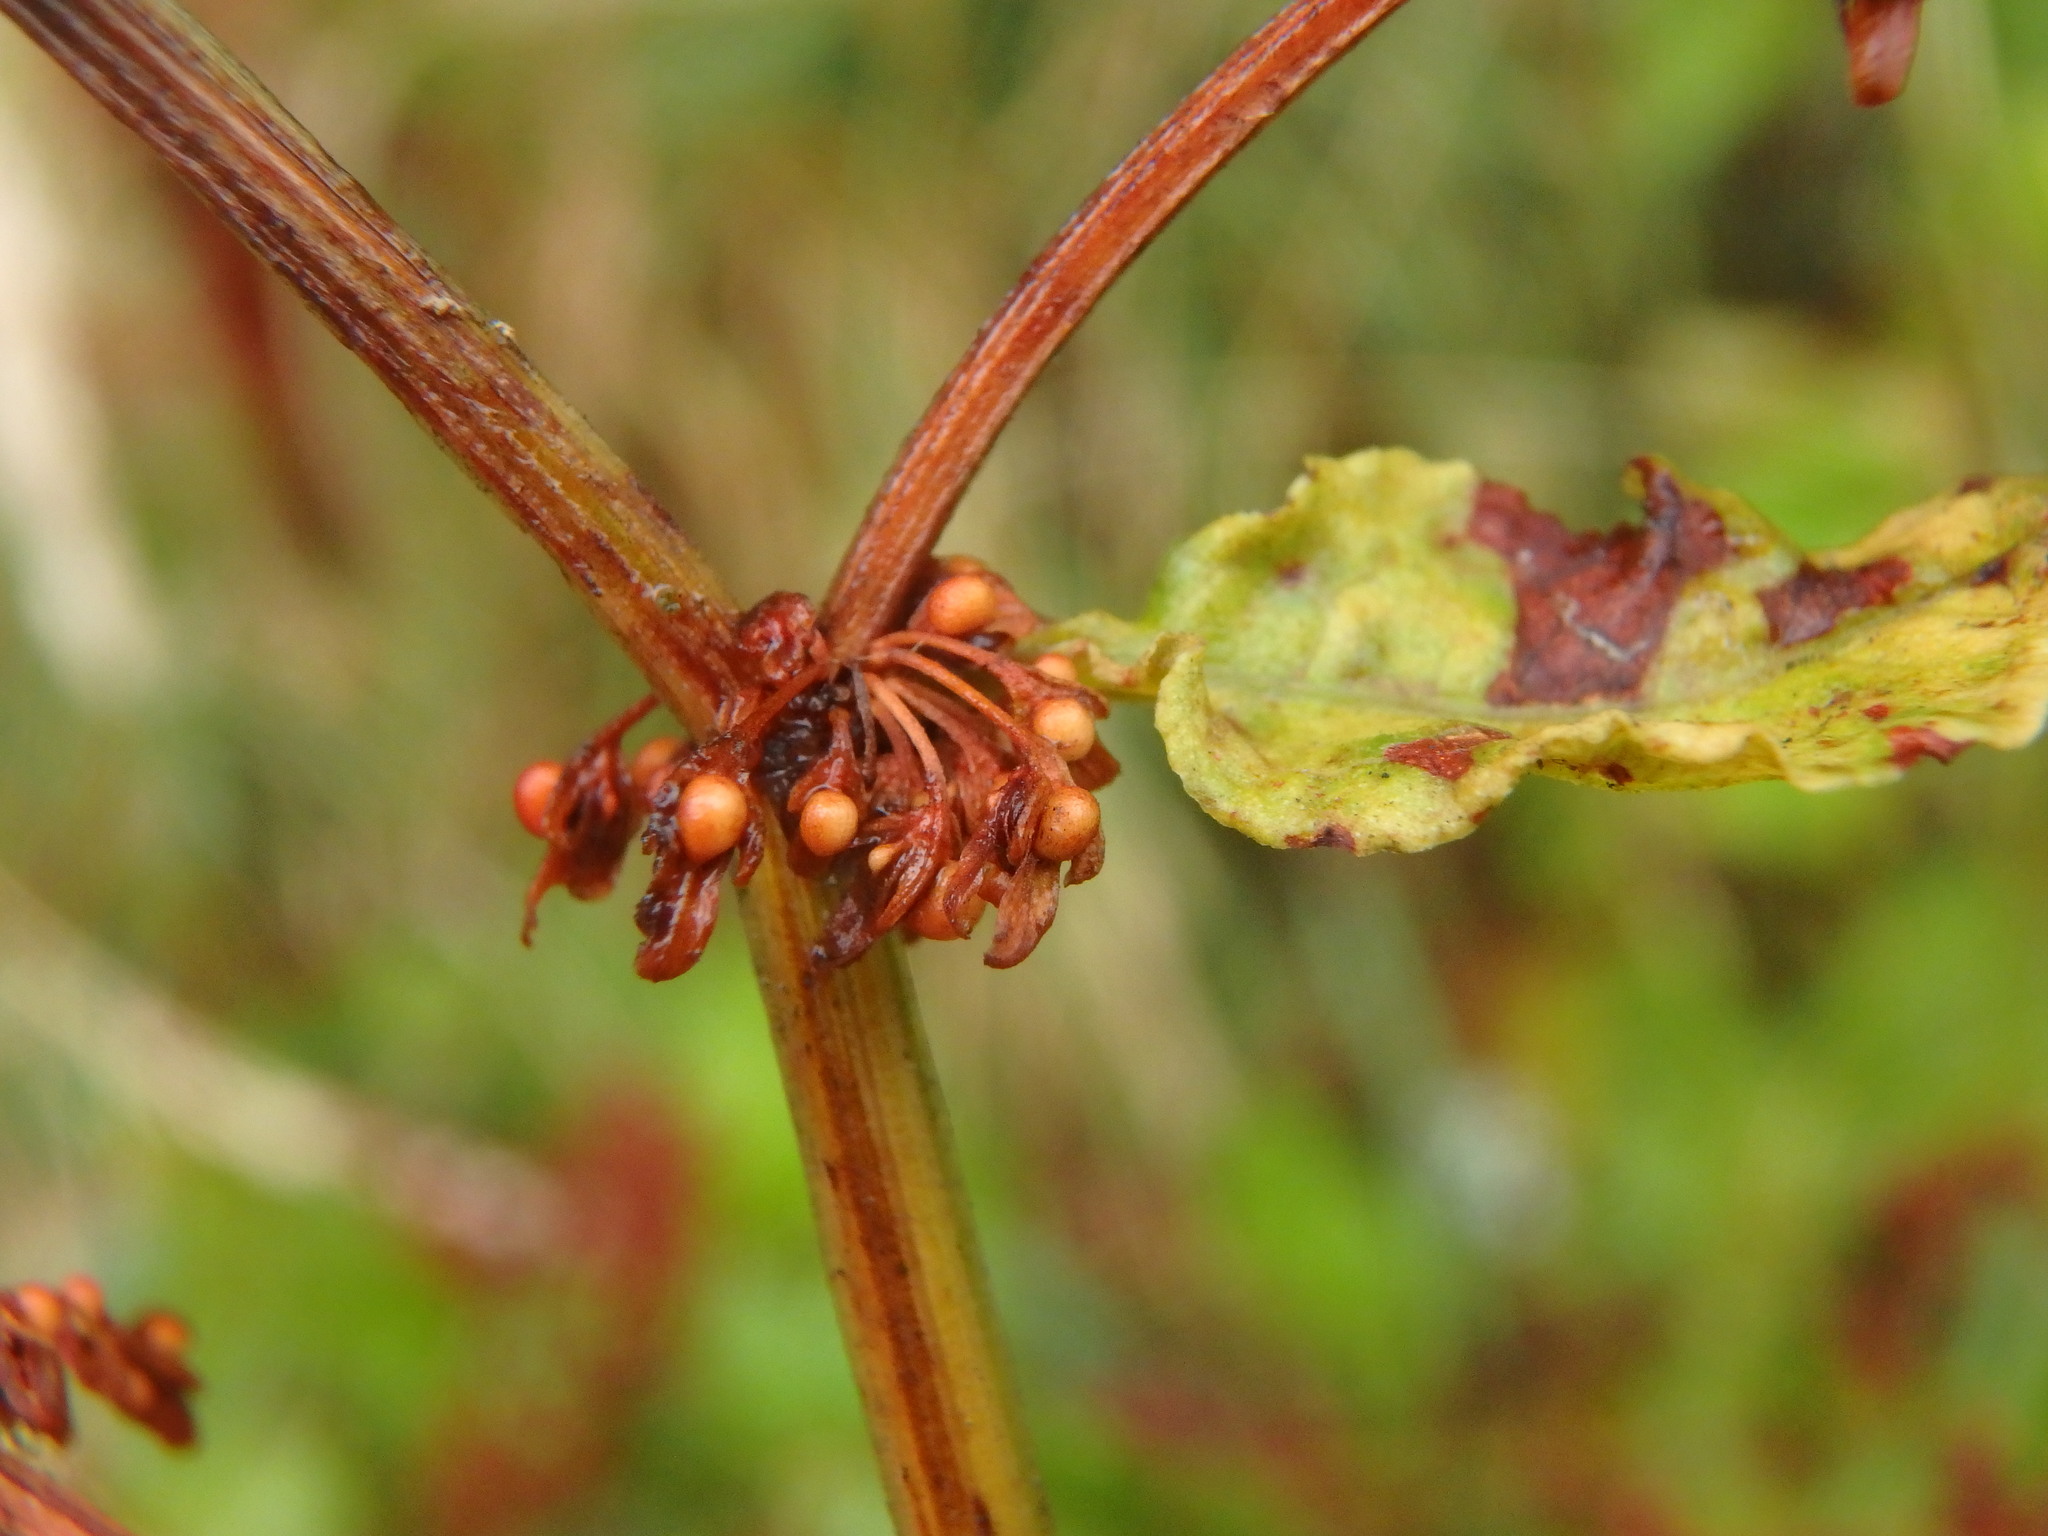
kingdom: Plantae
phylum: Tracheophyta
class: Magnoliopsida
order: Caryophyllales
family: Polygonaceae
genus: Rumex
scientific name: Rumex sanguineus
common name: Wood dock
